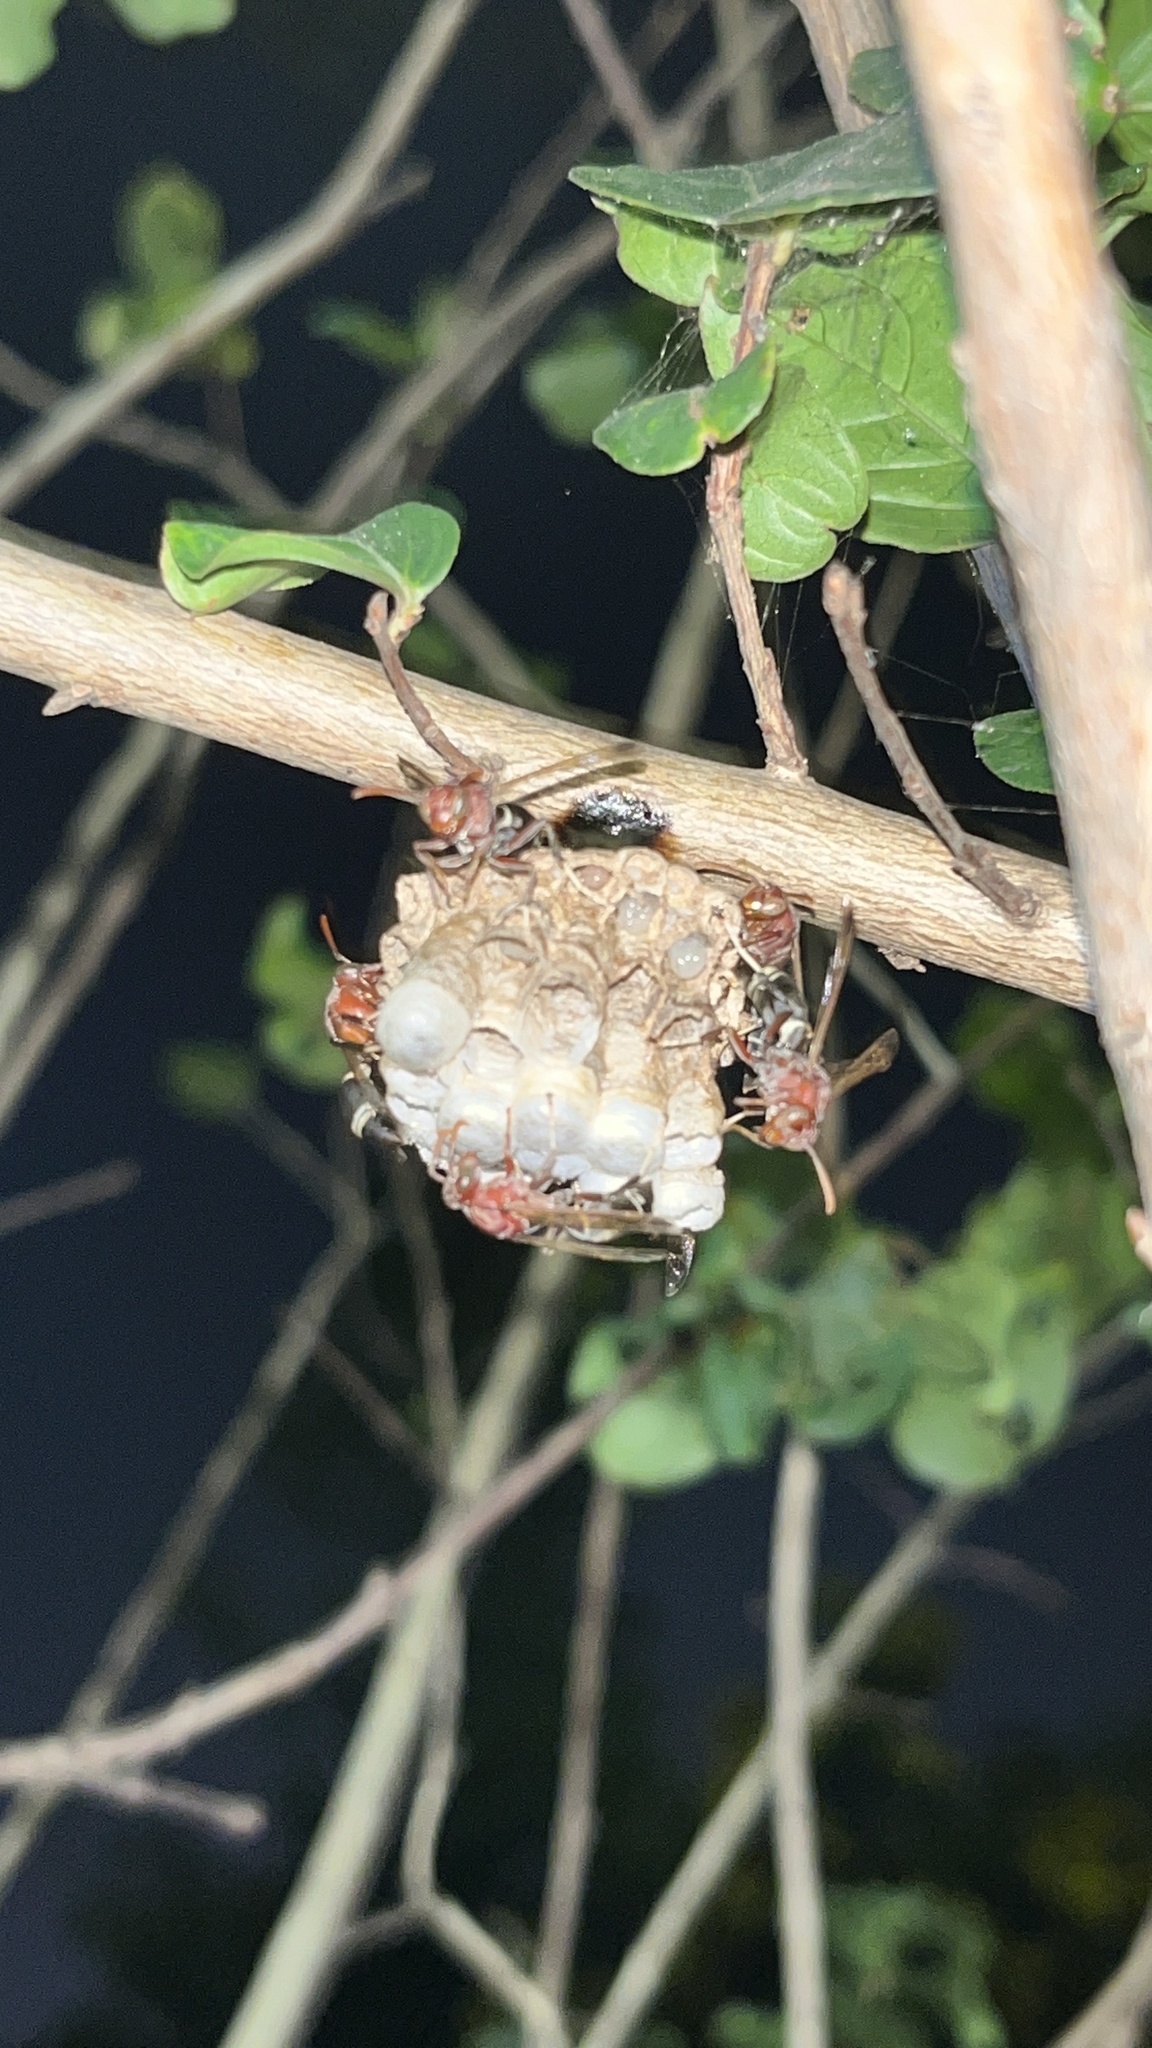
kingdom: Animalia
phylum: Arthropoda
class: Insecta
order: Hymenoptera
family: Eumenidae
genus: Polistes
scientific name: Polistes brunus
